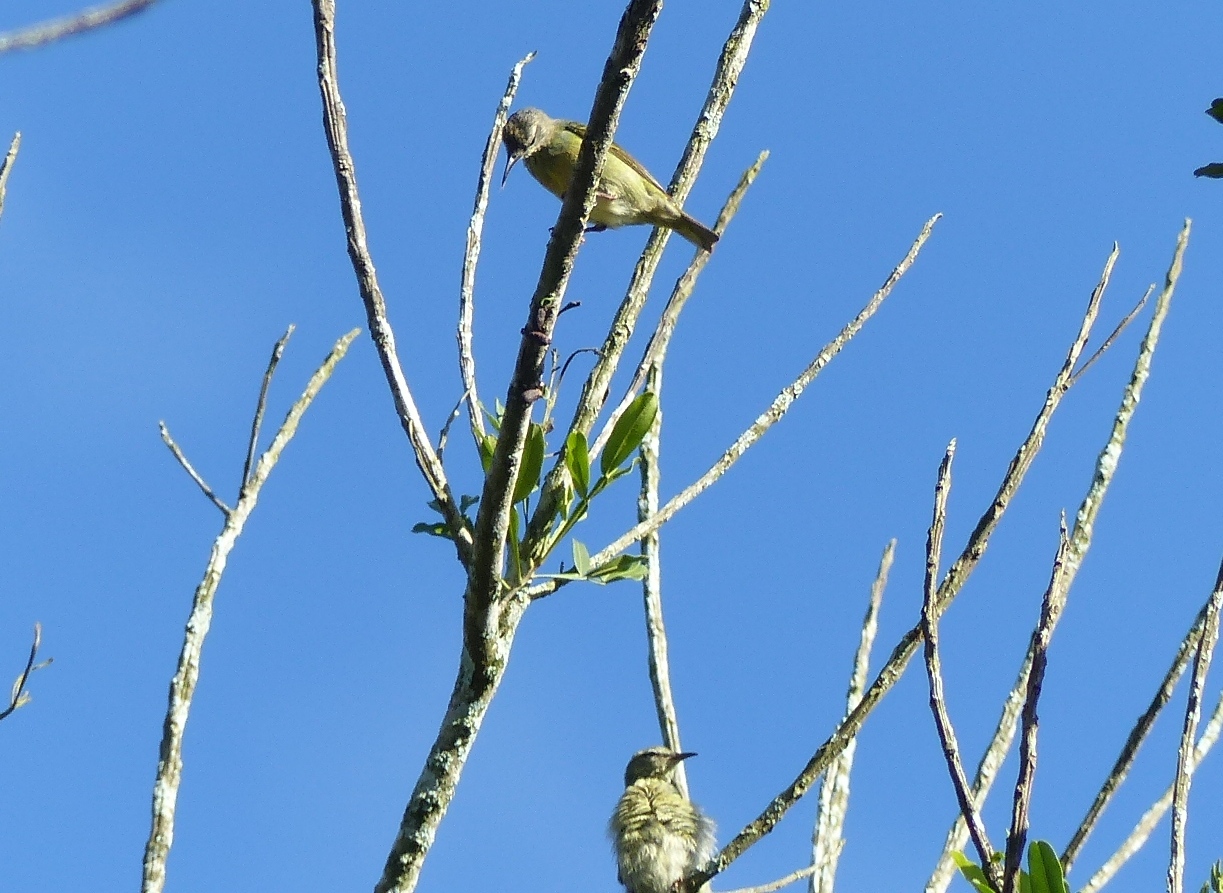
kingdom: Animalia
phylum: Chordata
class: Aves
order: Passeriformes
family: Thraupidae
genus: Cyanerpes
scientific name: Cyanerpes cyaneus
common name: Red-legged honeycreeper
